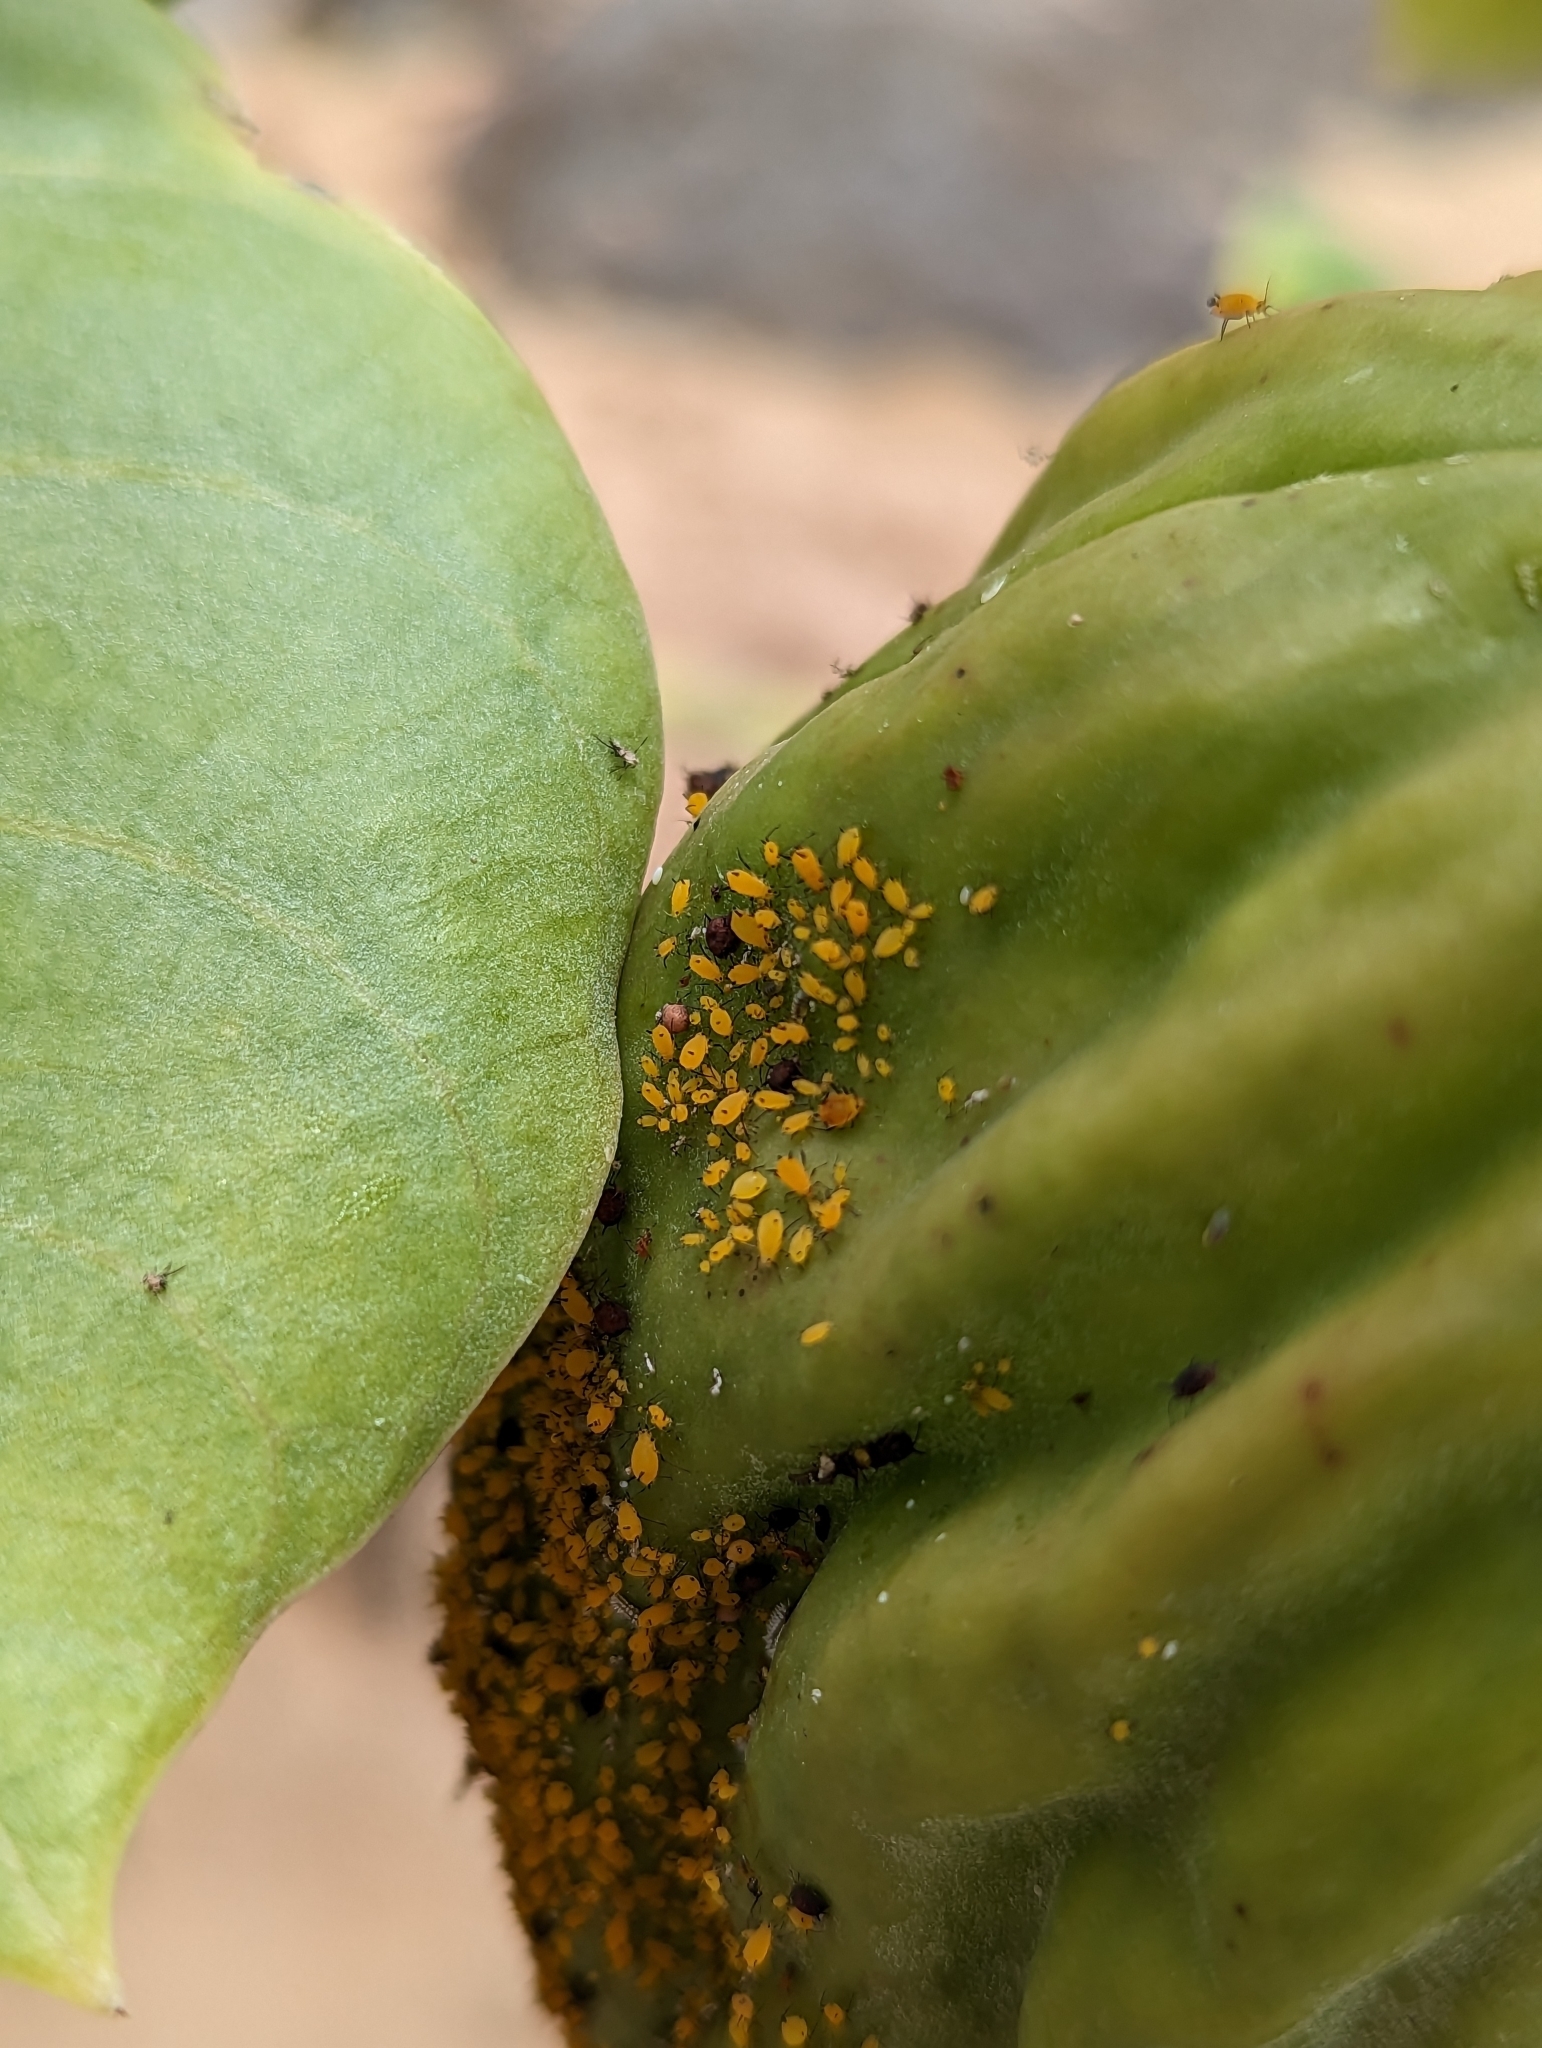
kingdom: Animalia
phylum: Arthropoda
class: Insecta
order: Hemiptera
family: Aphididae
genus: Aphis
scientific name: Aphis nerii
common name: Oleander aphid
